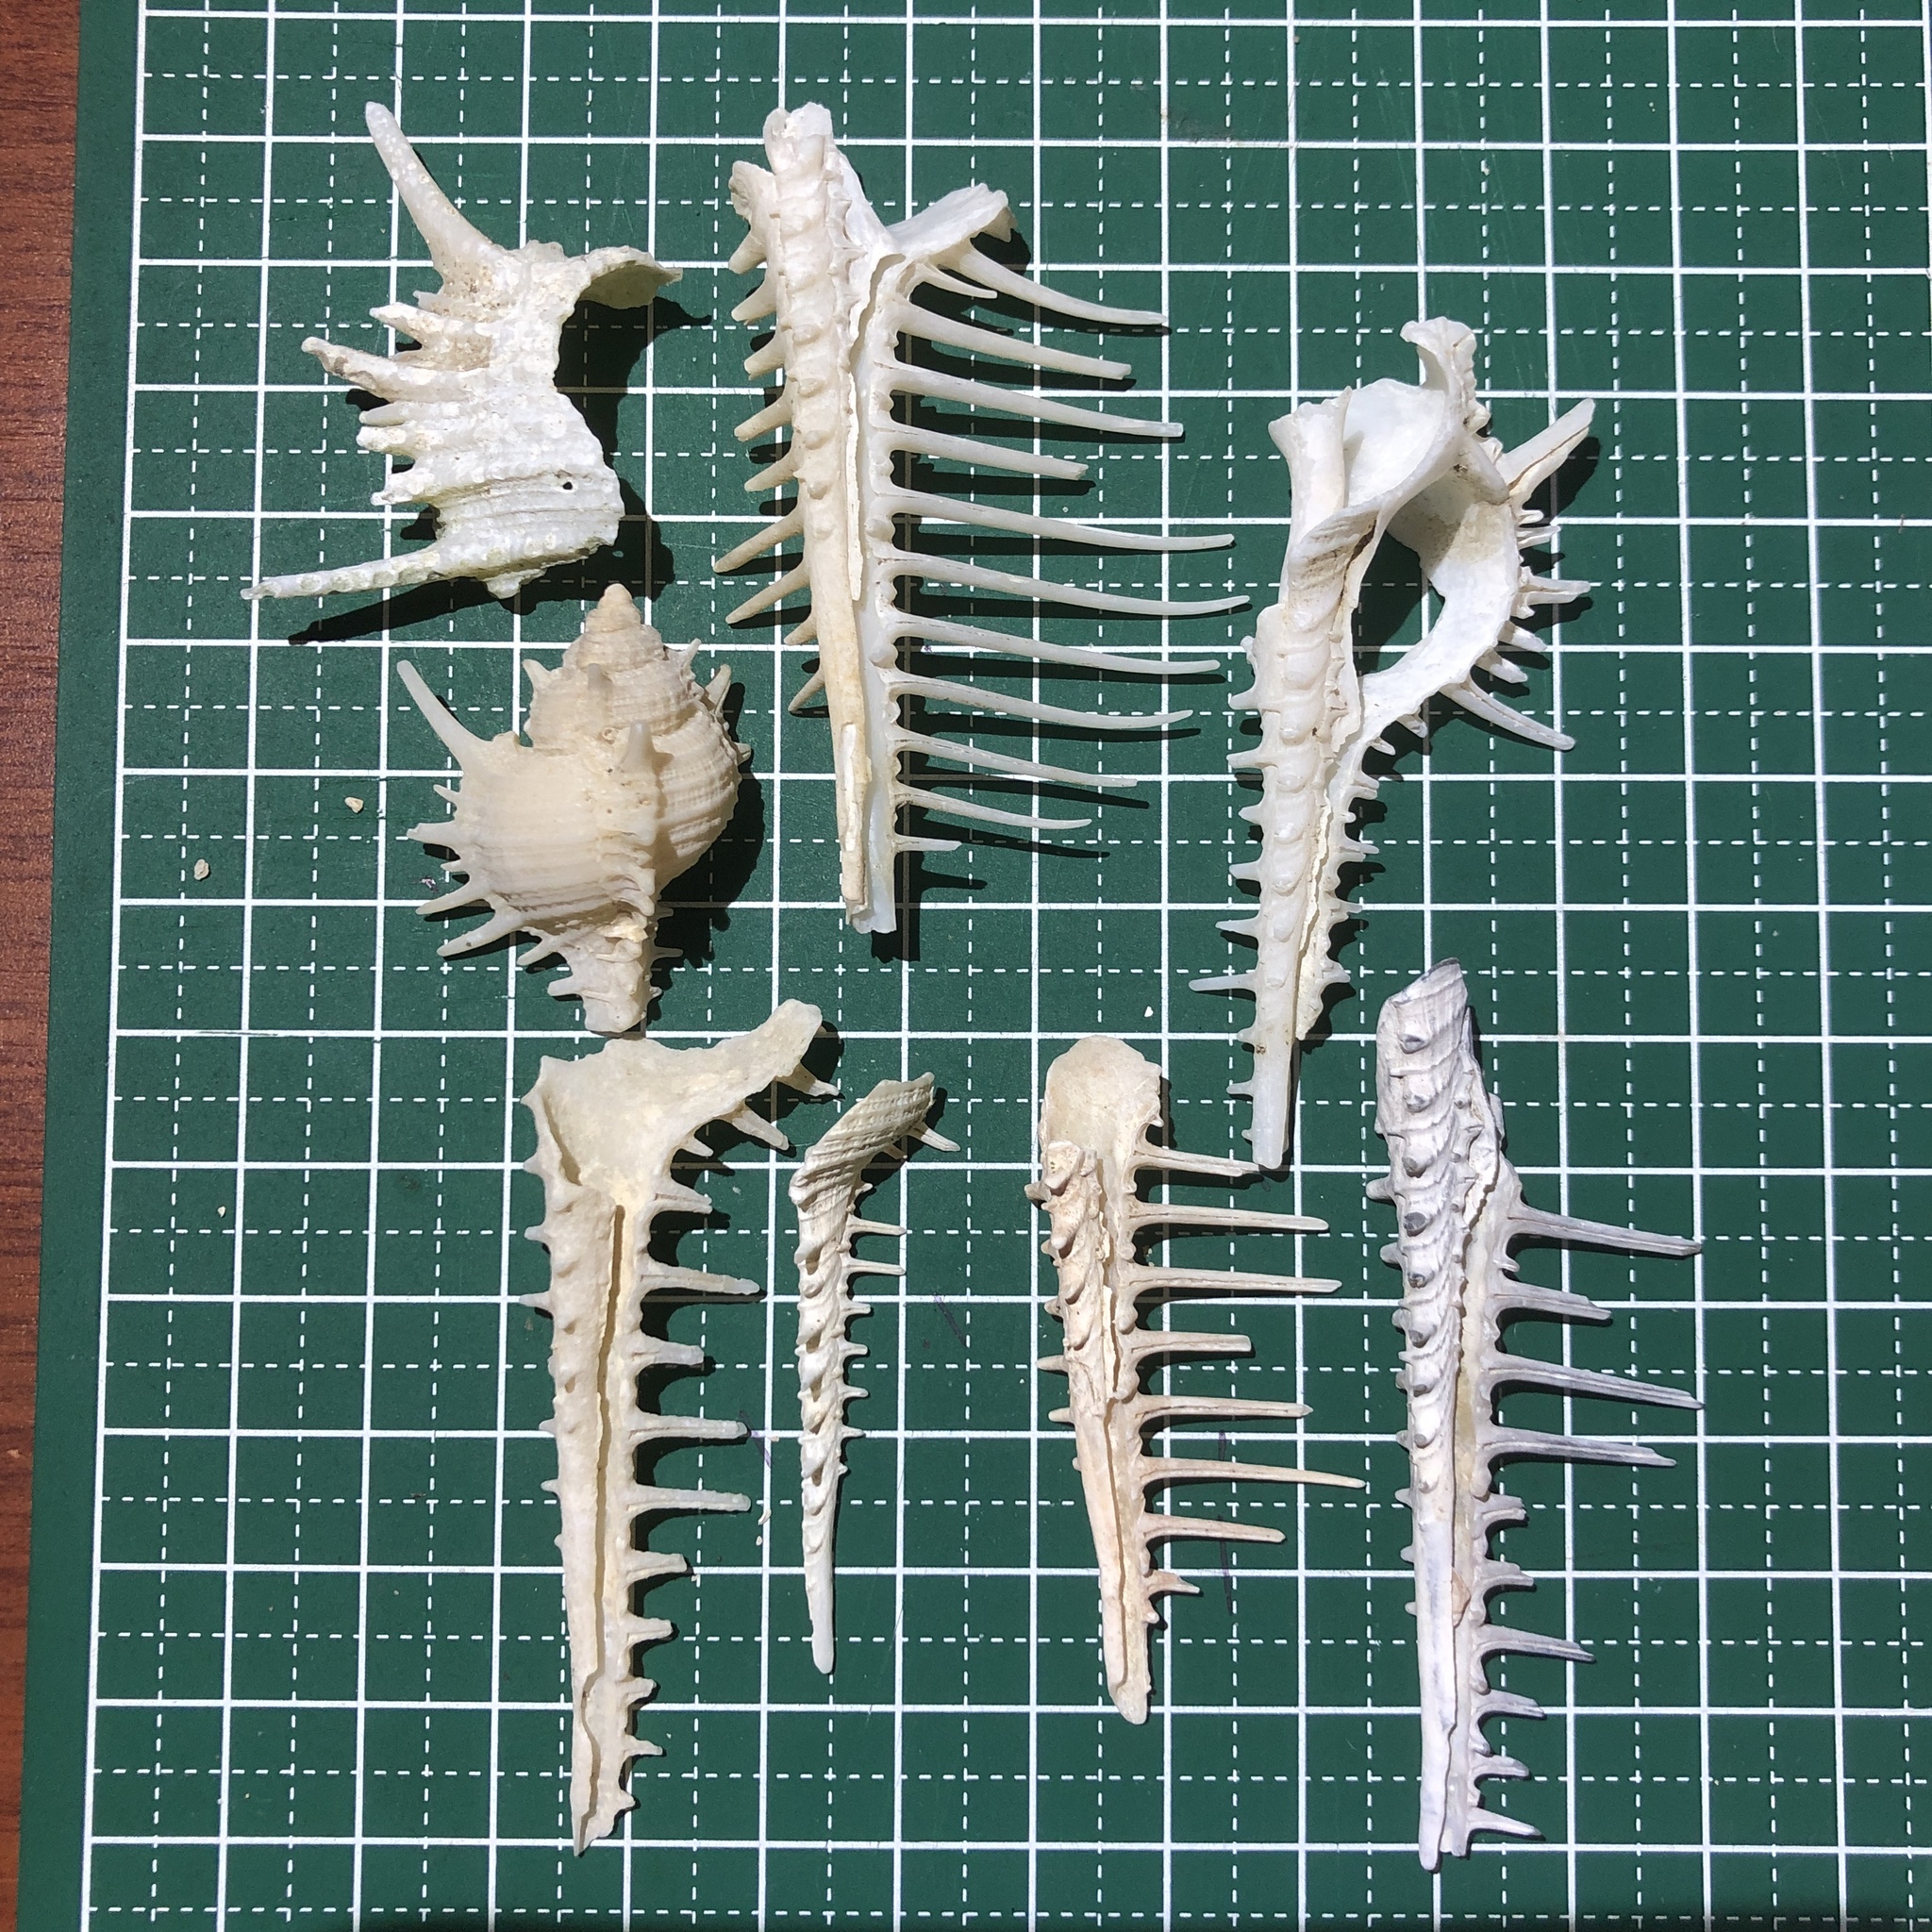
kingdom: Animalia
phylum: Mollusca
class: Gastropoda
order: Neogastropoda
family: Muricidae
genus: Murex
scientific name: Murex pecten
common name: Venus comb
